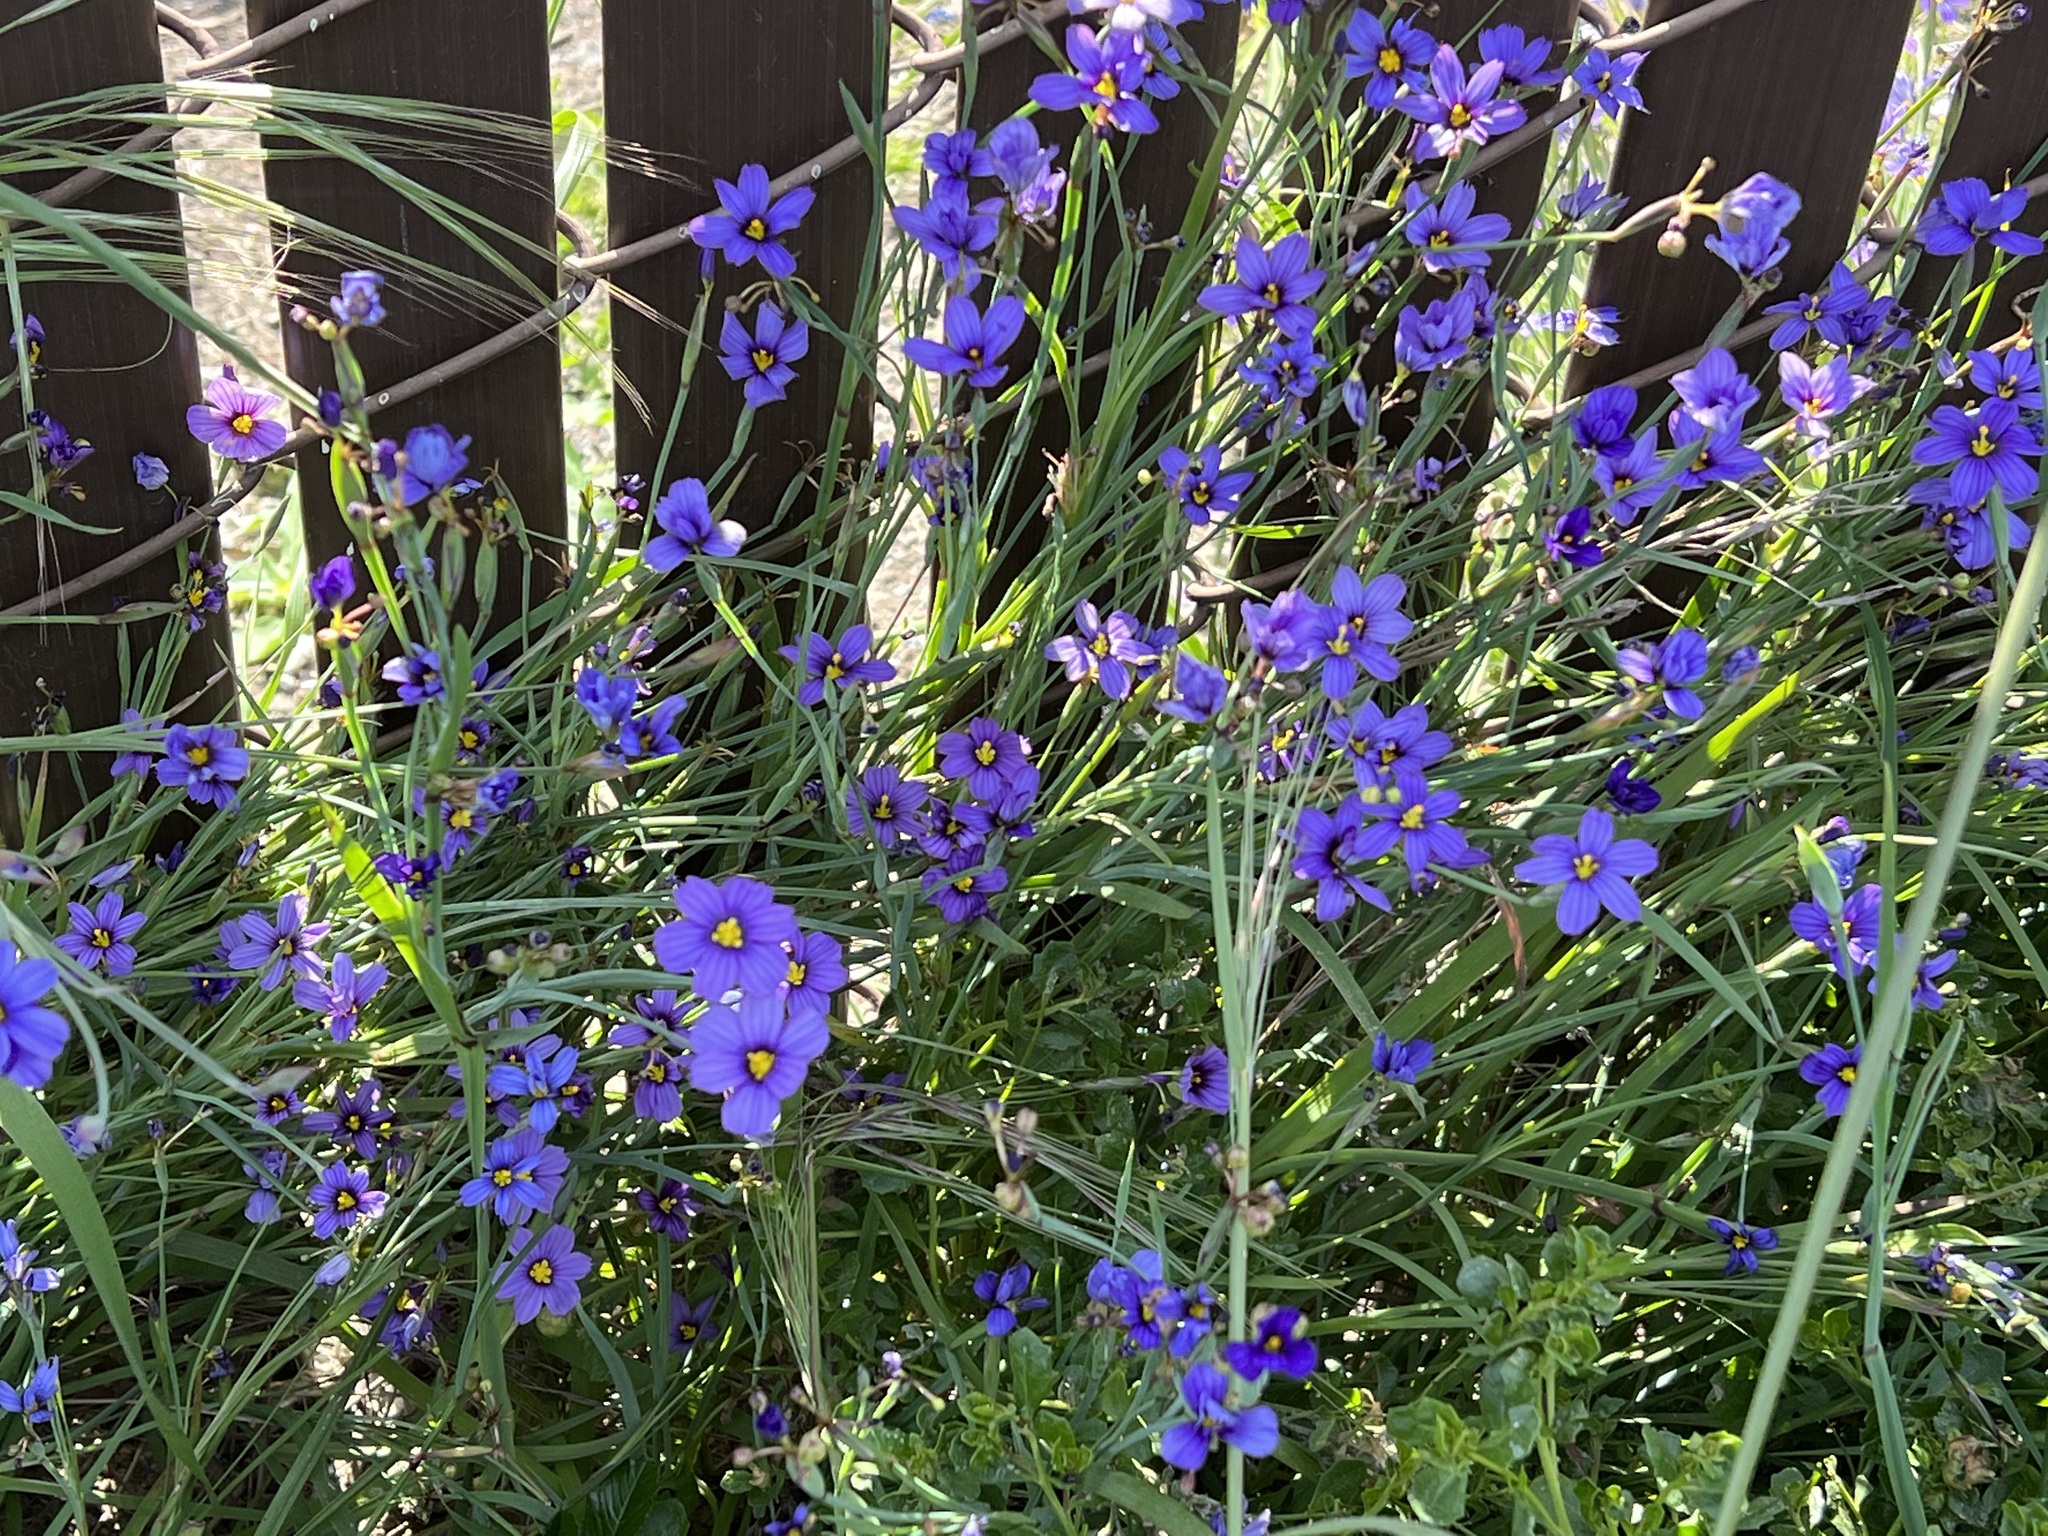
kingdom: Plantae
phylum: Tracheophyta
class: Liliopsida
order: Asparagales
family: Iridaceae
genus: Sisyrinchium
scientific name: Sisyrinchium bellum
